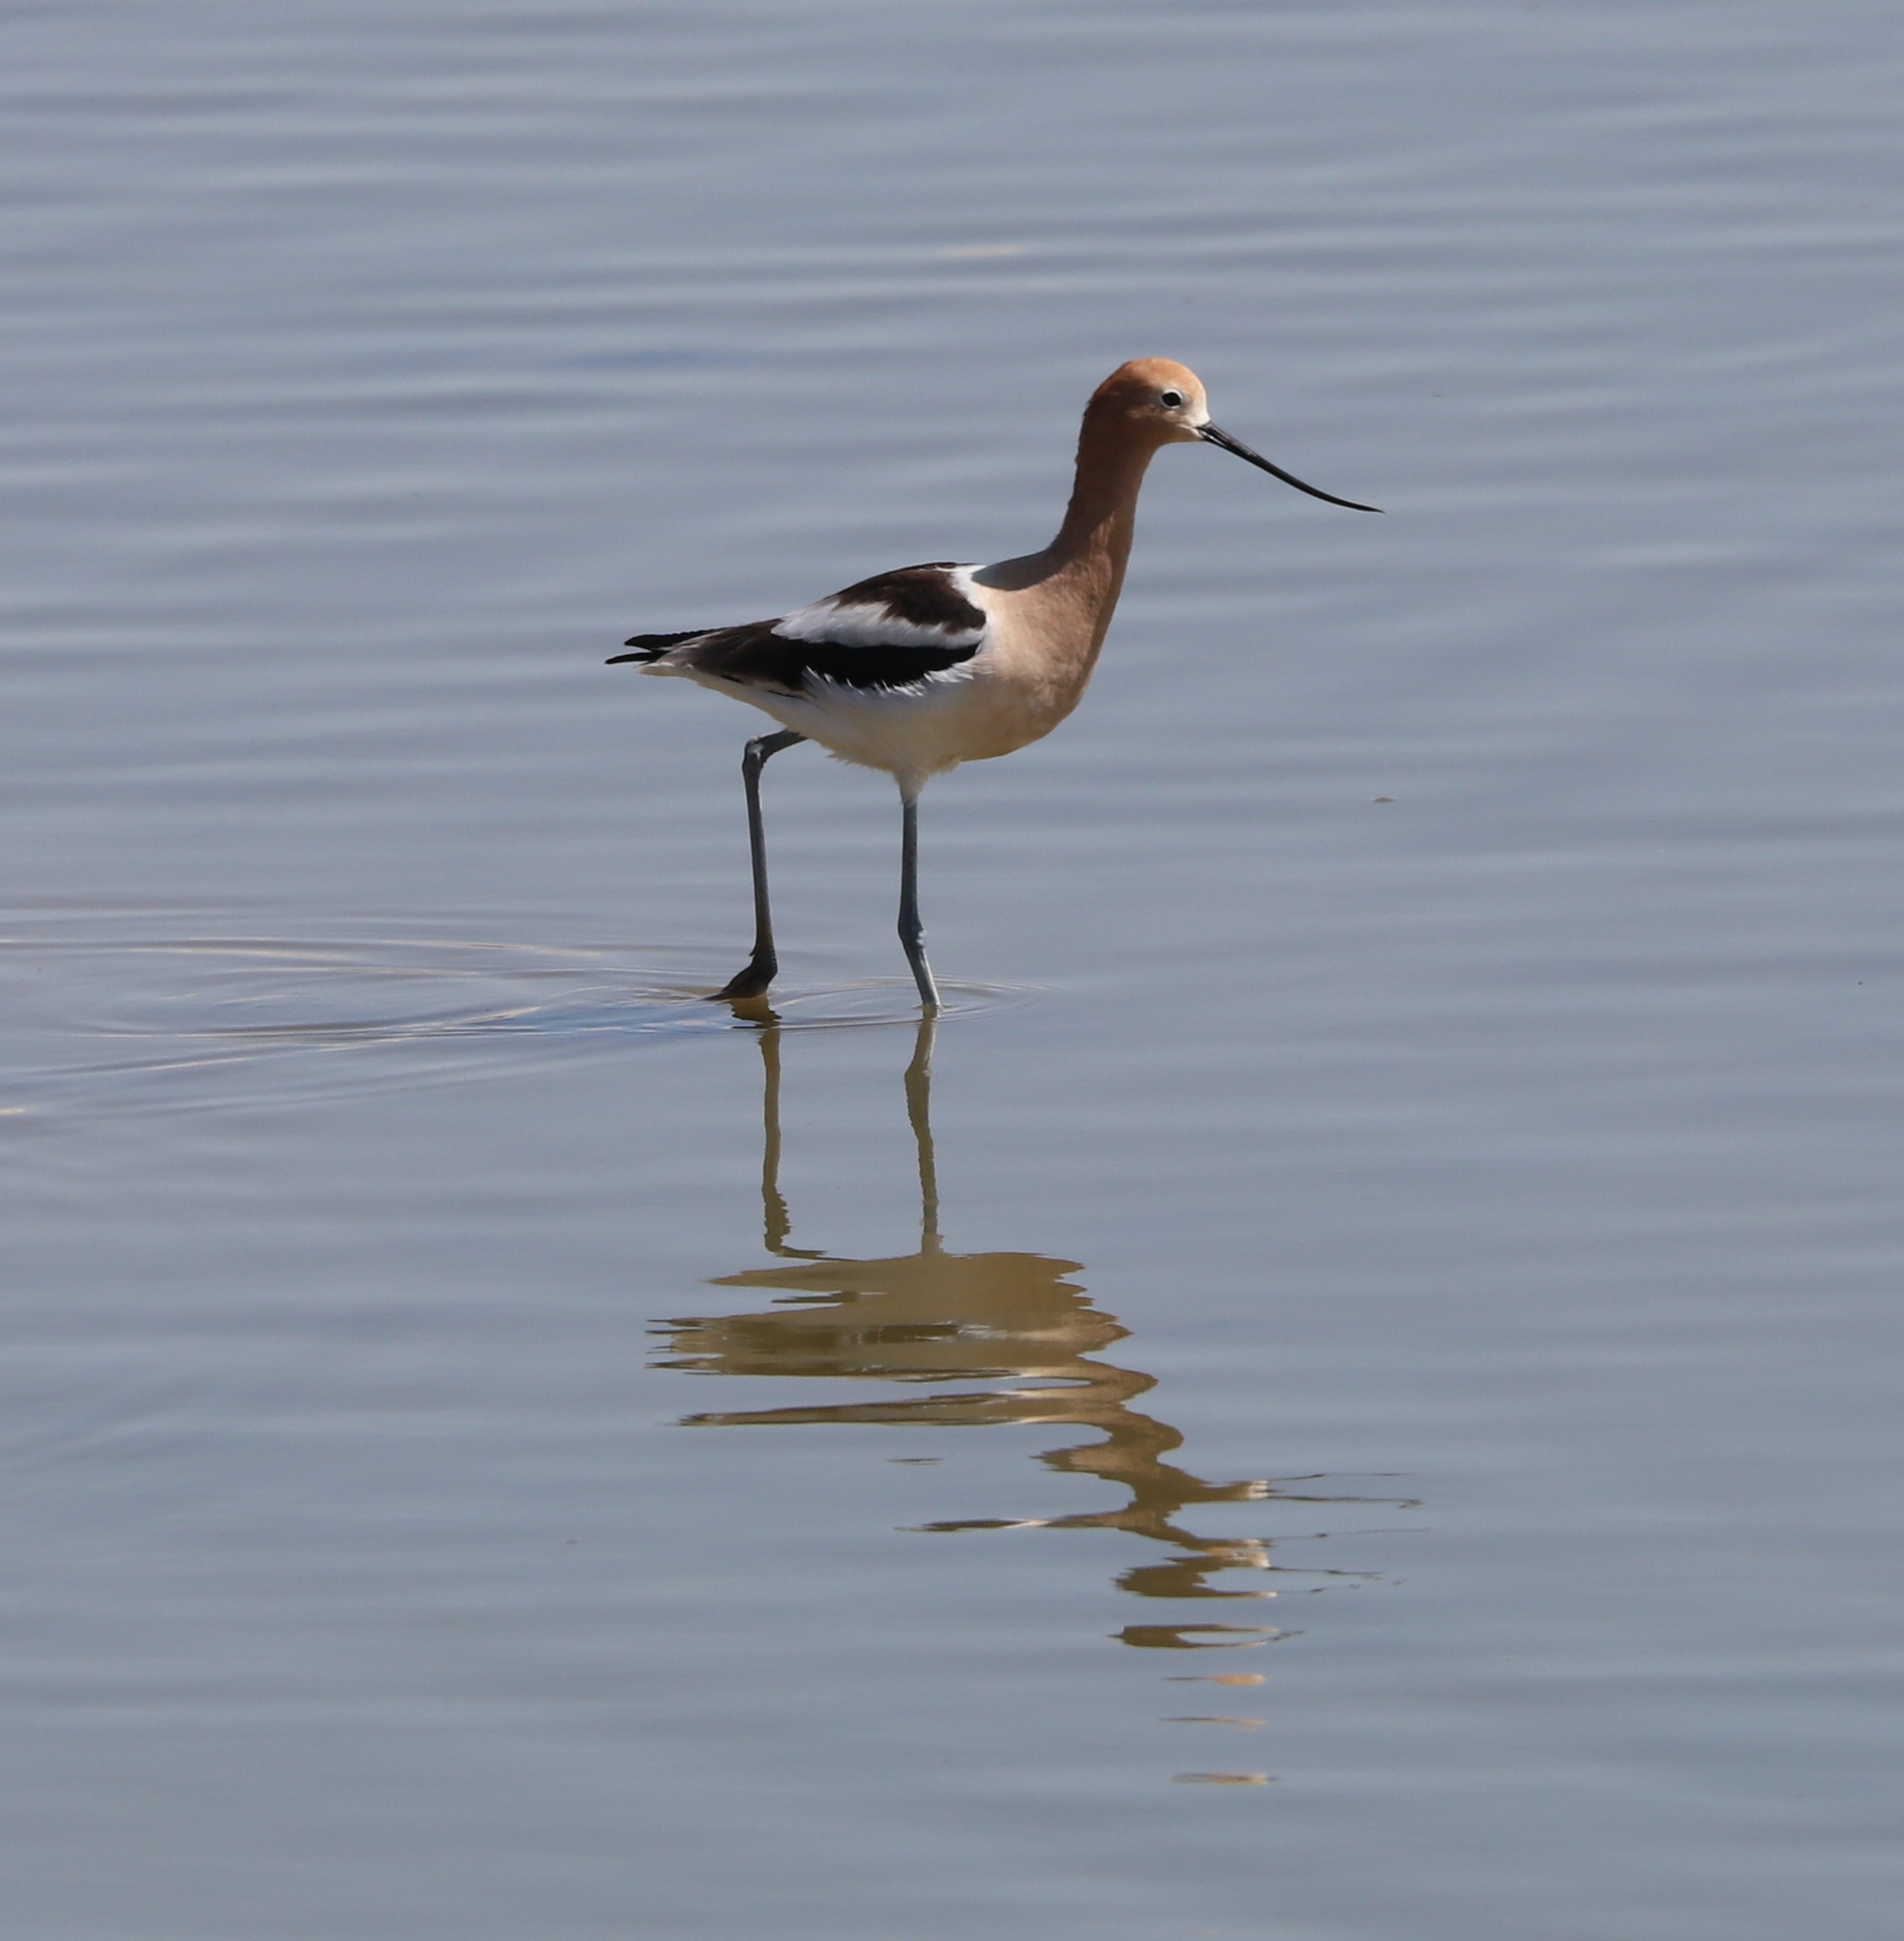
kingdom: Animalia
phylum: Chordata
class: Aves
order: Charadriiformes
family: Recurvirostridae
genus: Recurvirostra
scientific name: Recurvirostra americana
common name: American avocet
